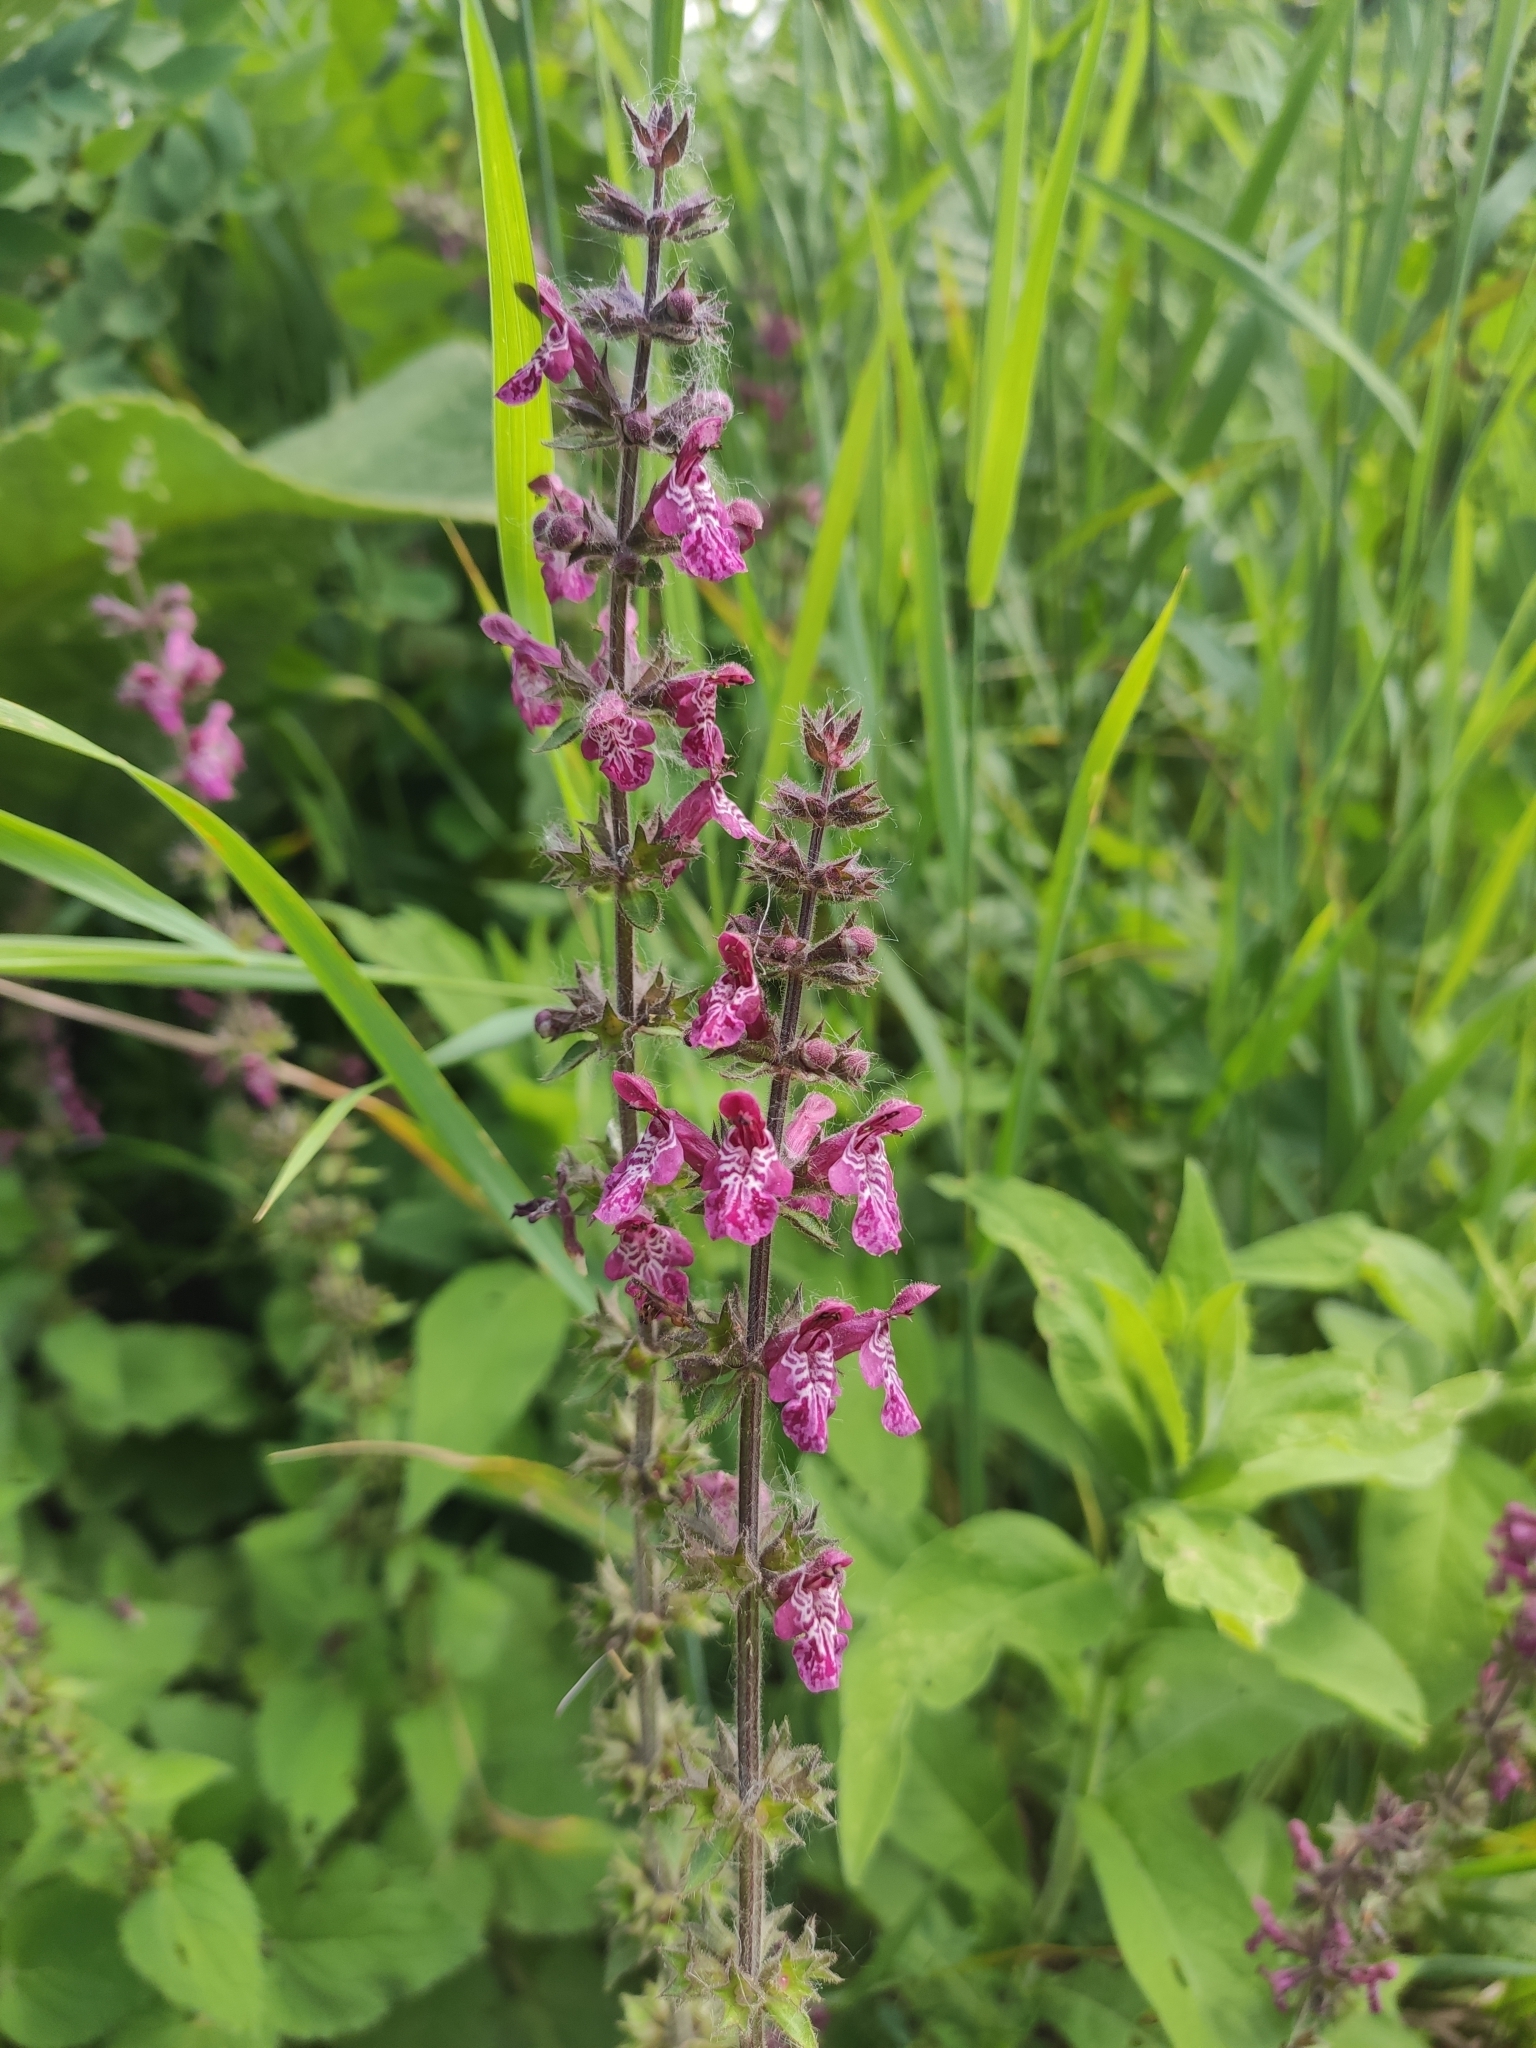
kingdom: Plantae
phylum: Tracheophyta
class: Magnoliopsida
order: Lamiales
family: Lamiaceae
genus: Stachys
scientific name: Stachys sylvatica
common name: Hedge woundwort
